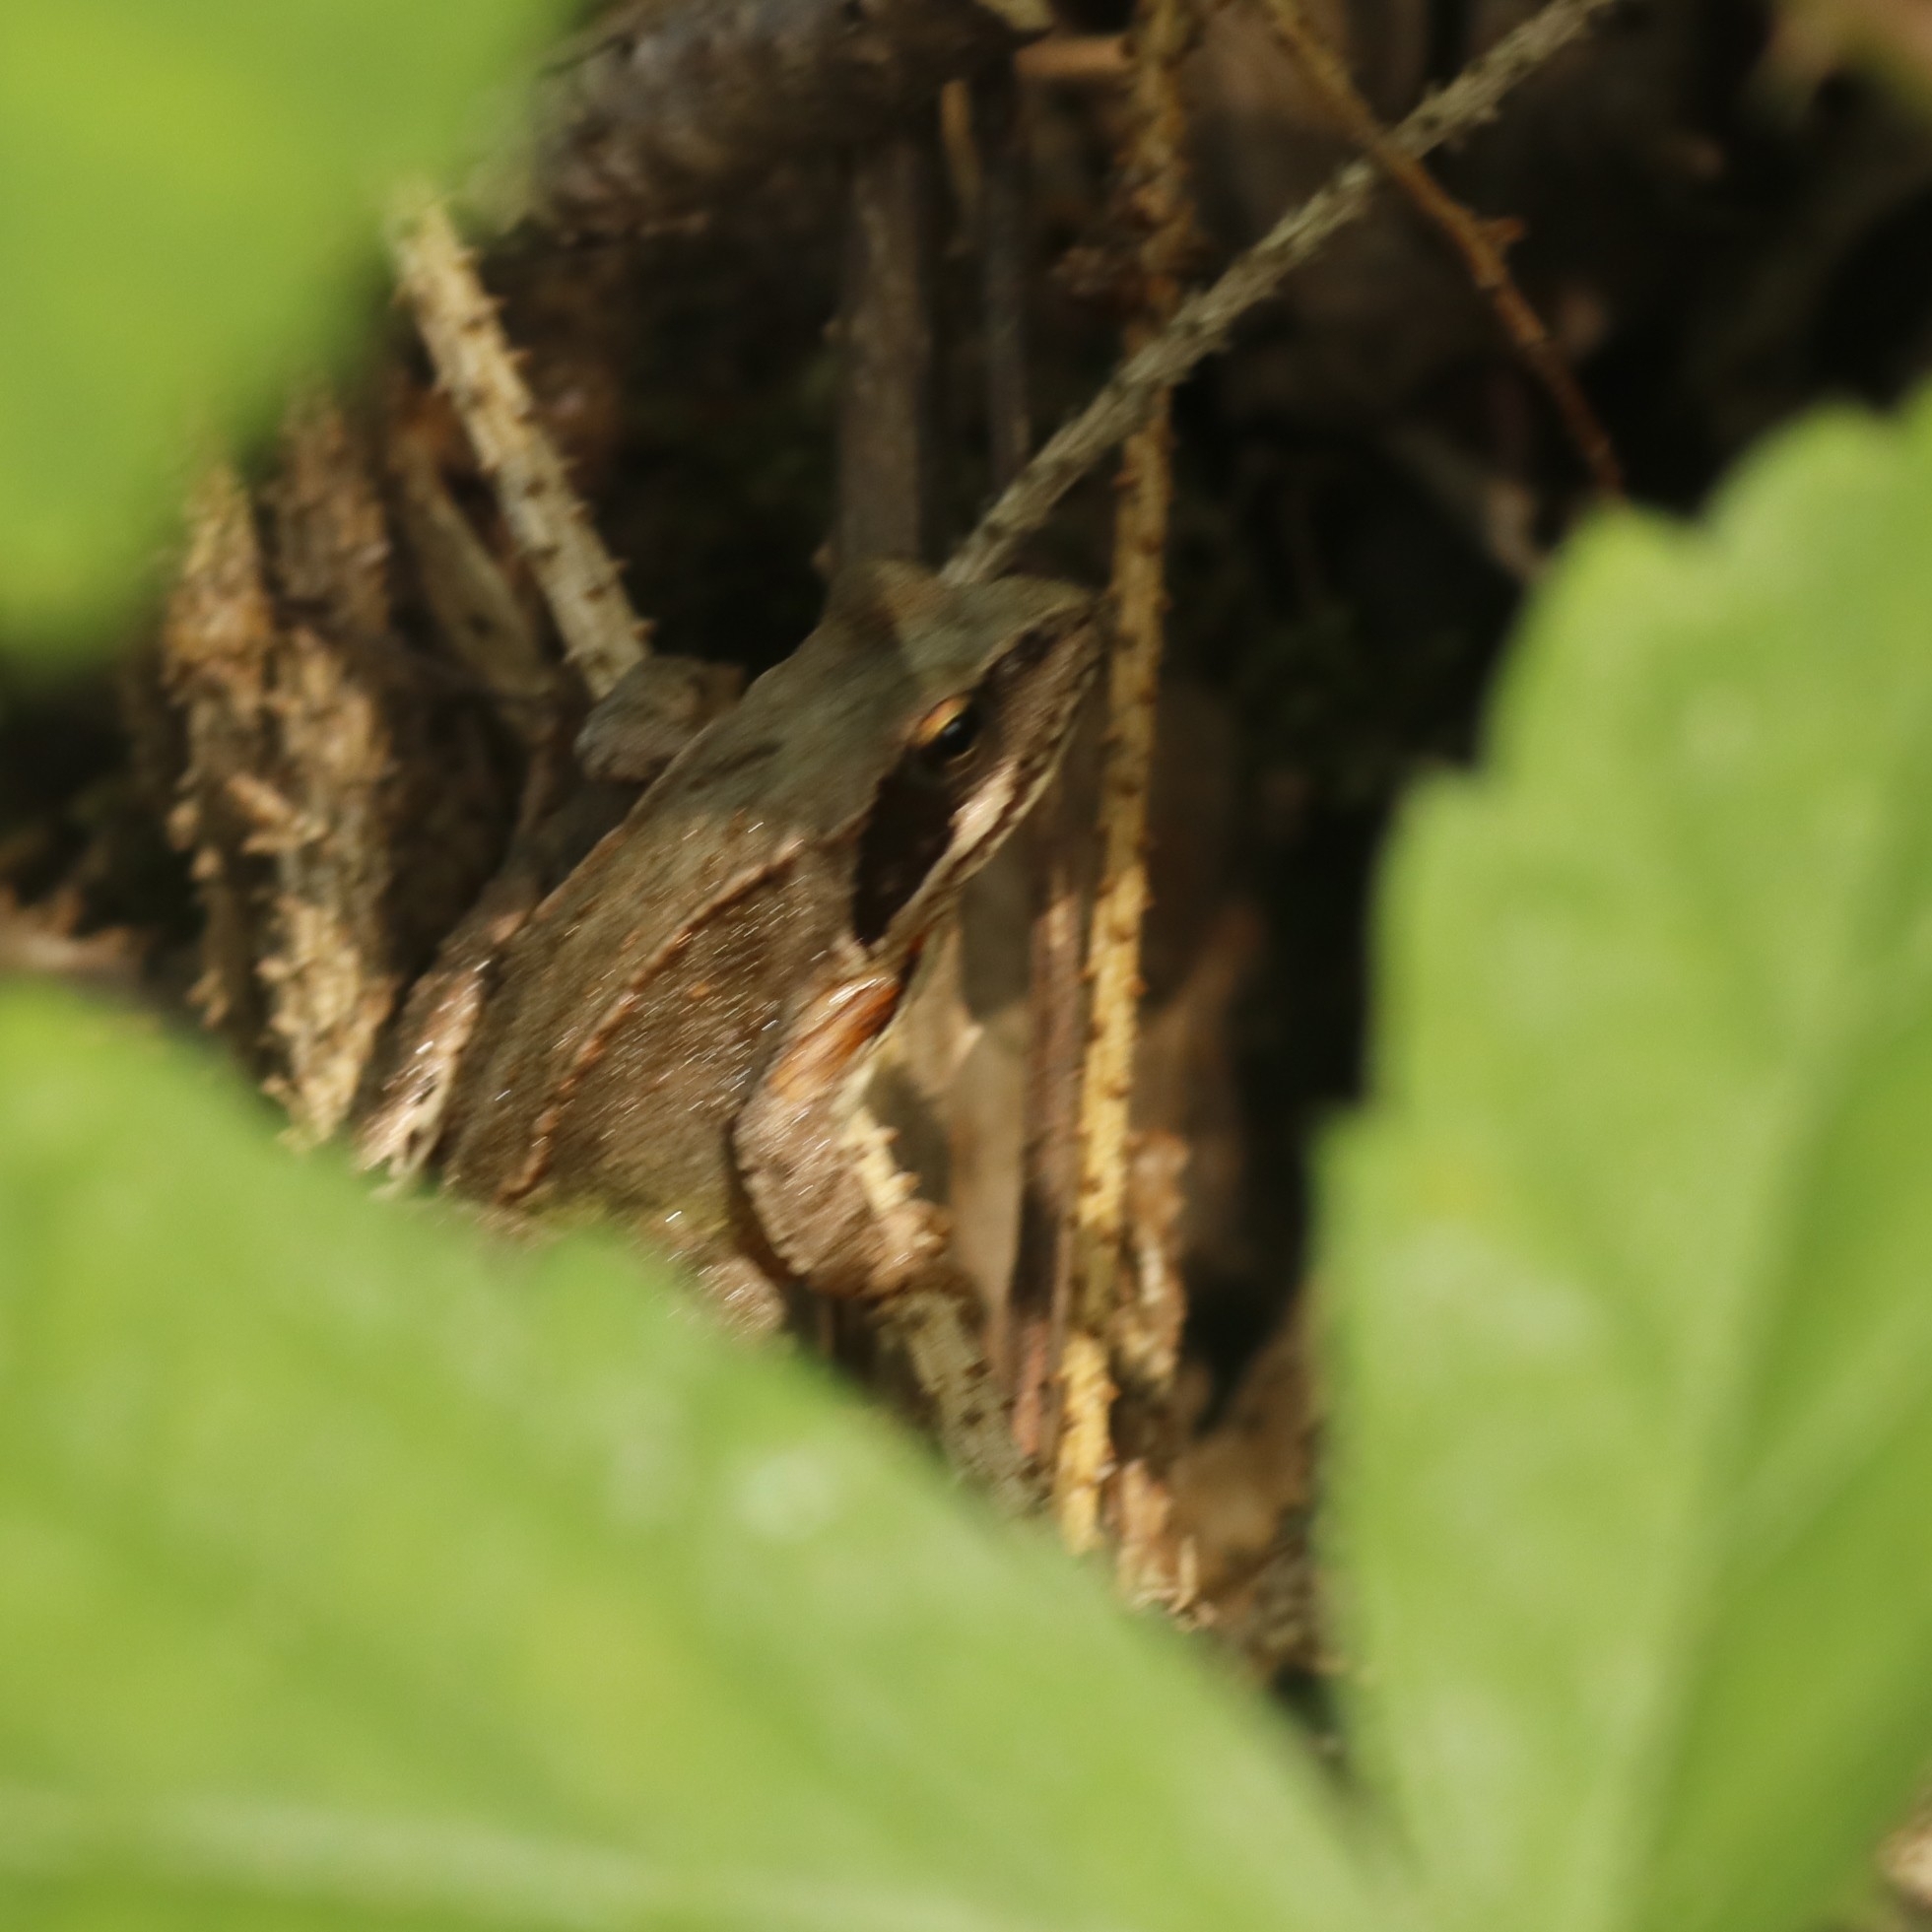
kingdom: Animalia
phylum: Chordata
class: Amphibia
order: Anura
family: Ranidae
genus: Rana
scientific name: Rana temporaria
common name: Common frog
